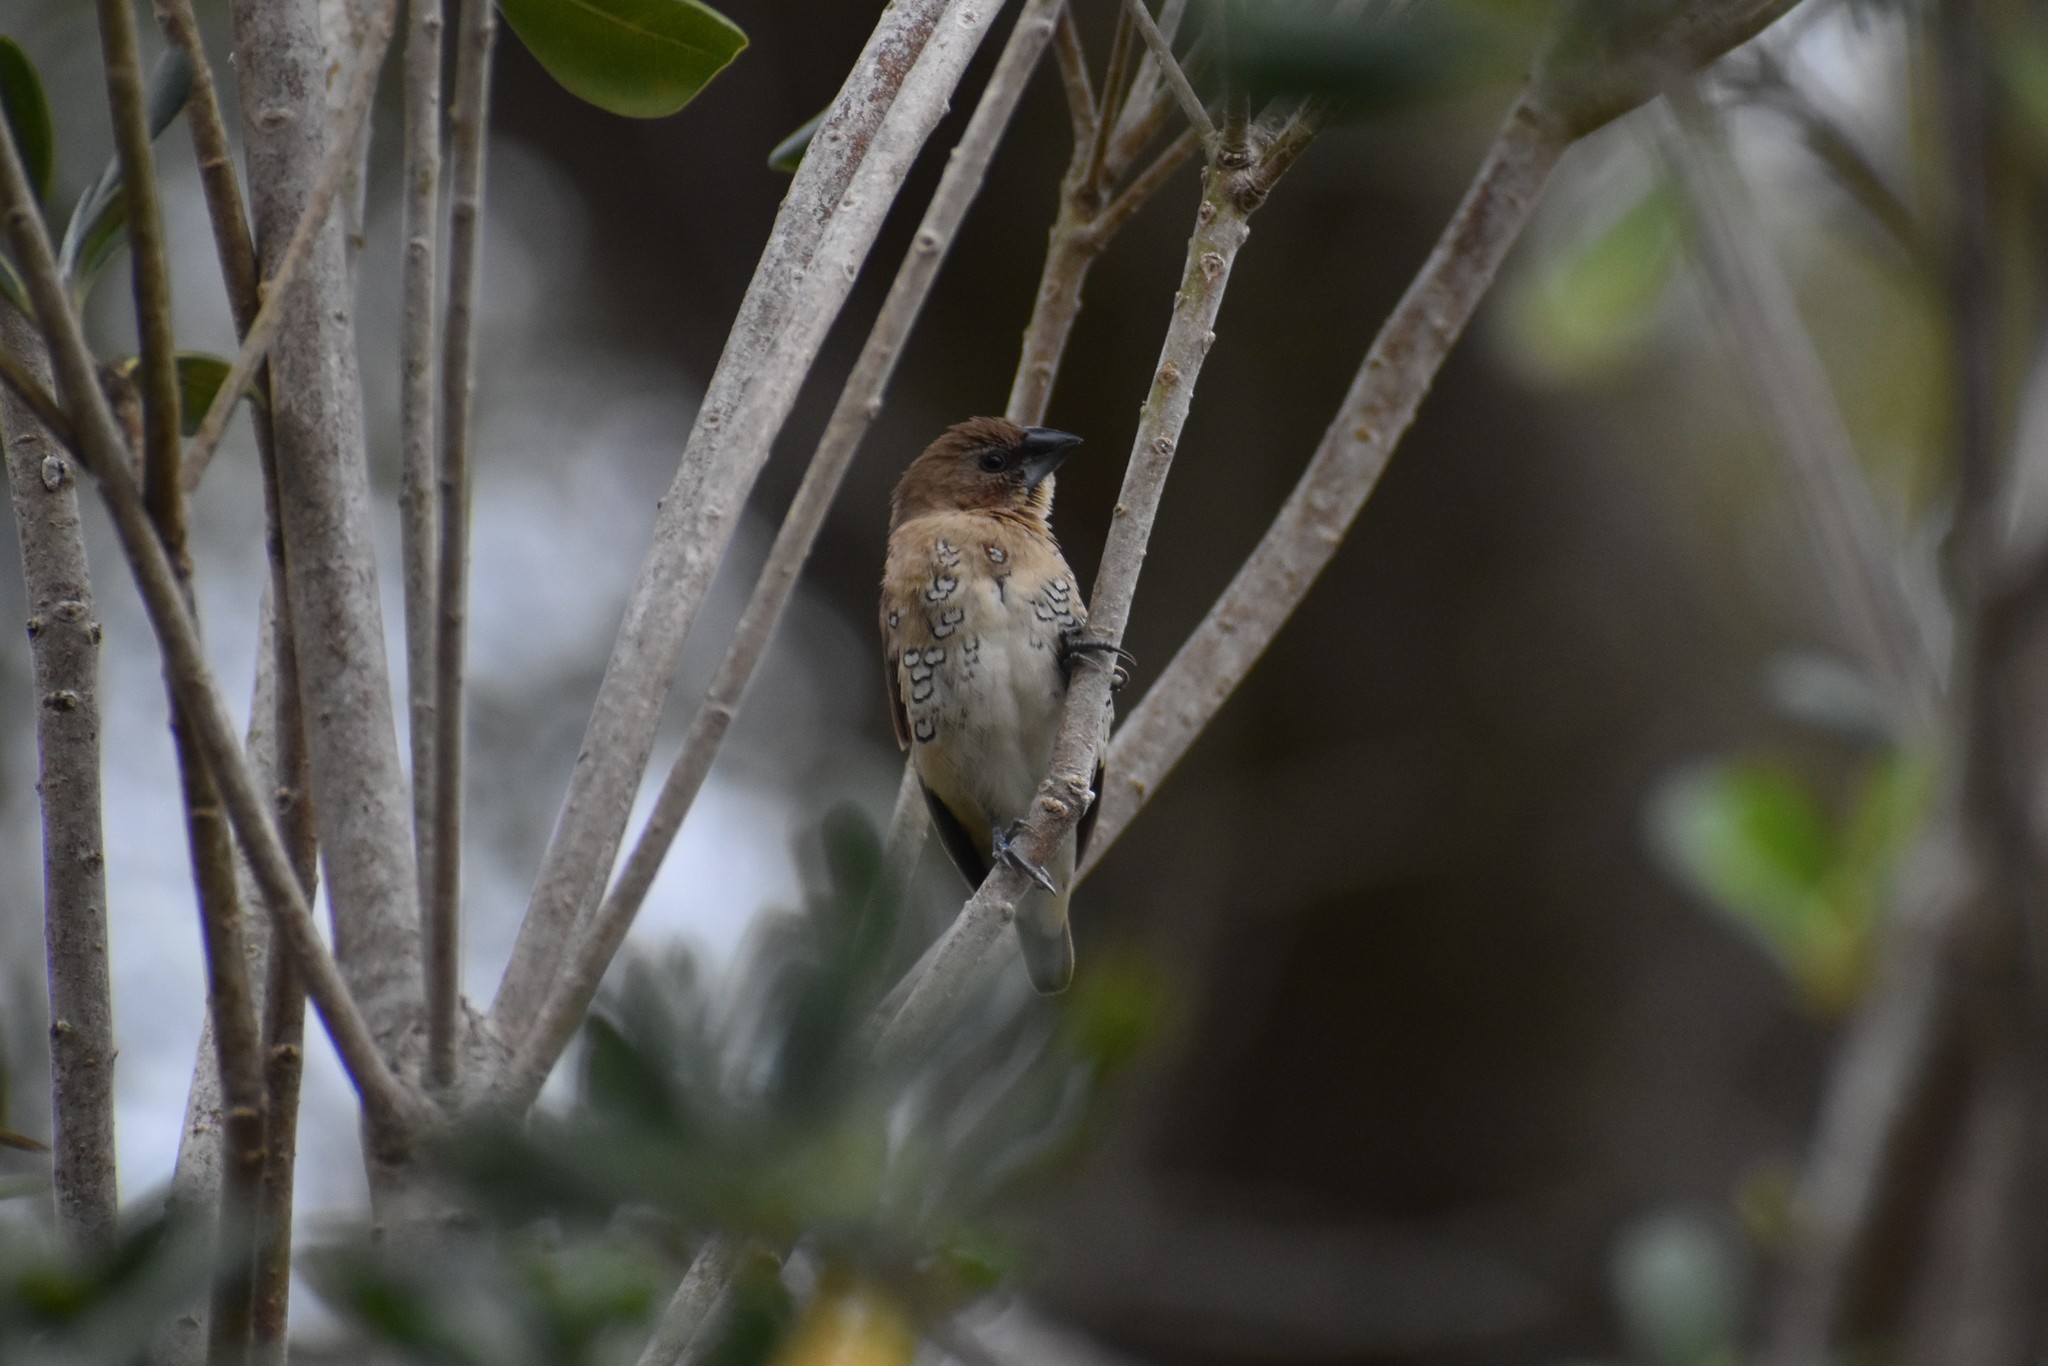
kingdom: Animalia
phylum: Chordata
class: Aves
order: Passeriformes
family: Estrildidae
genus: Lonchura
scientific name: Lonchura punctulata
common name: Scaly-breasted munia
